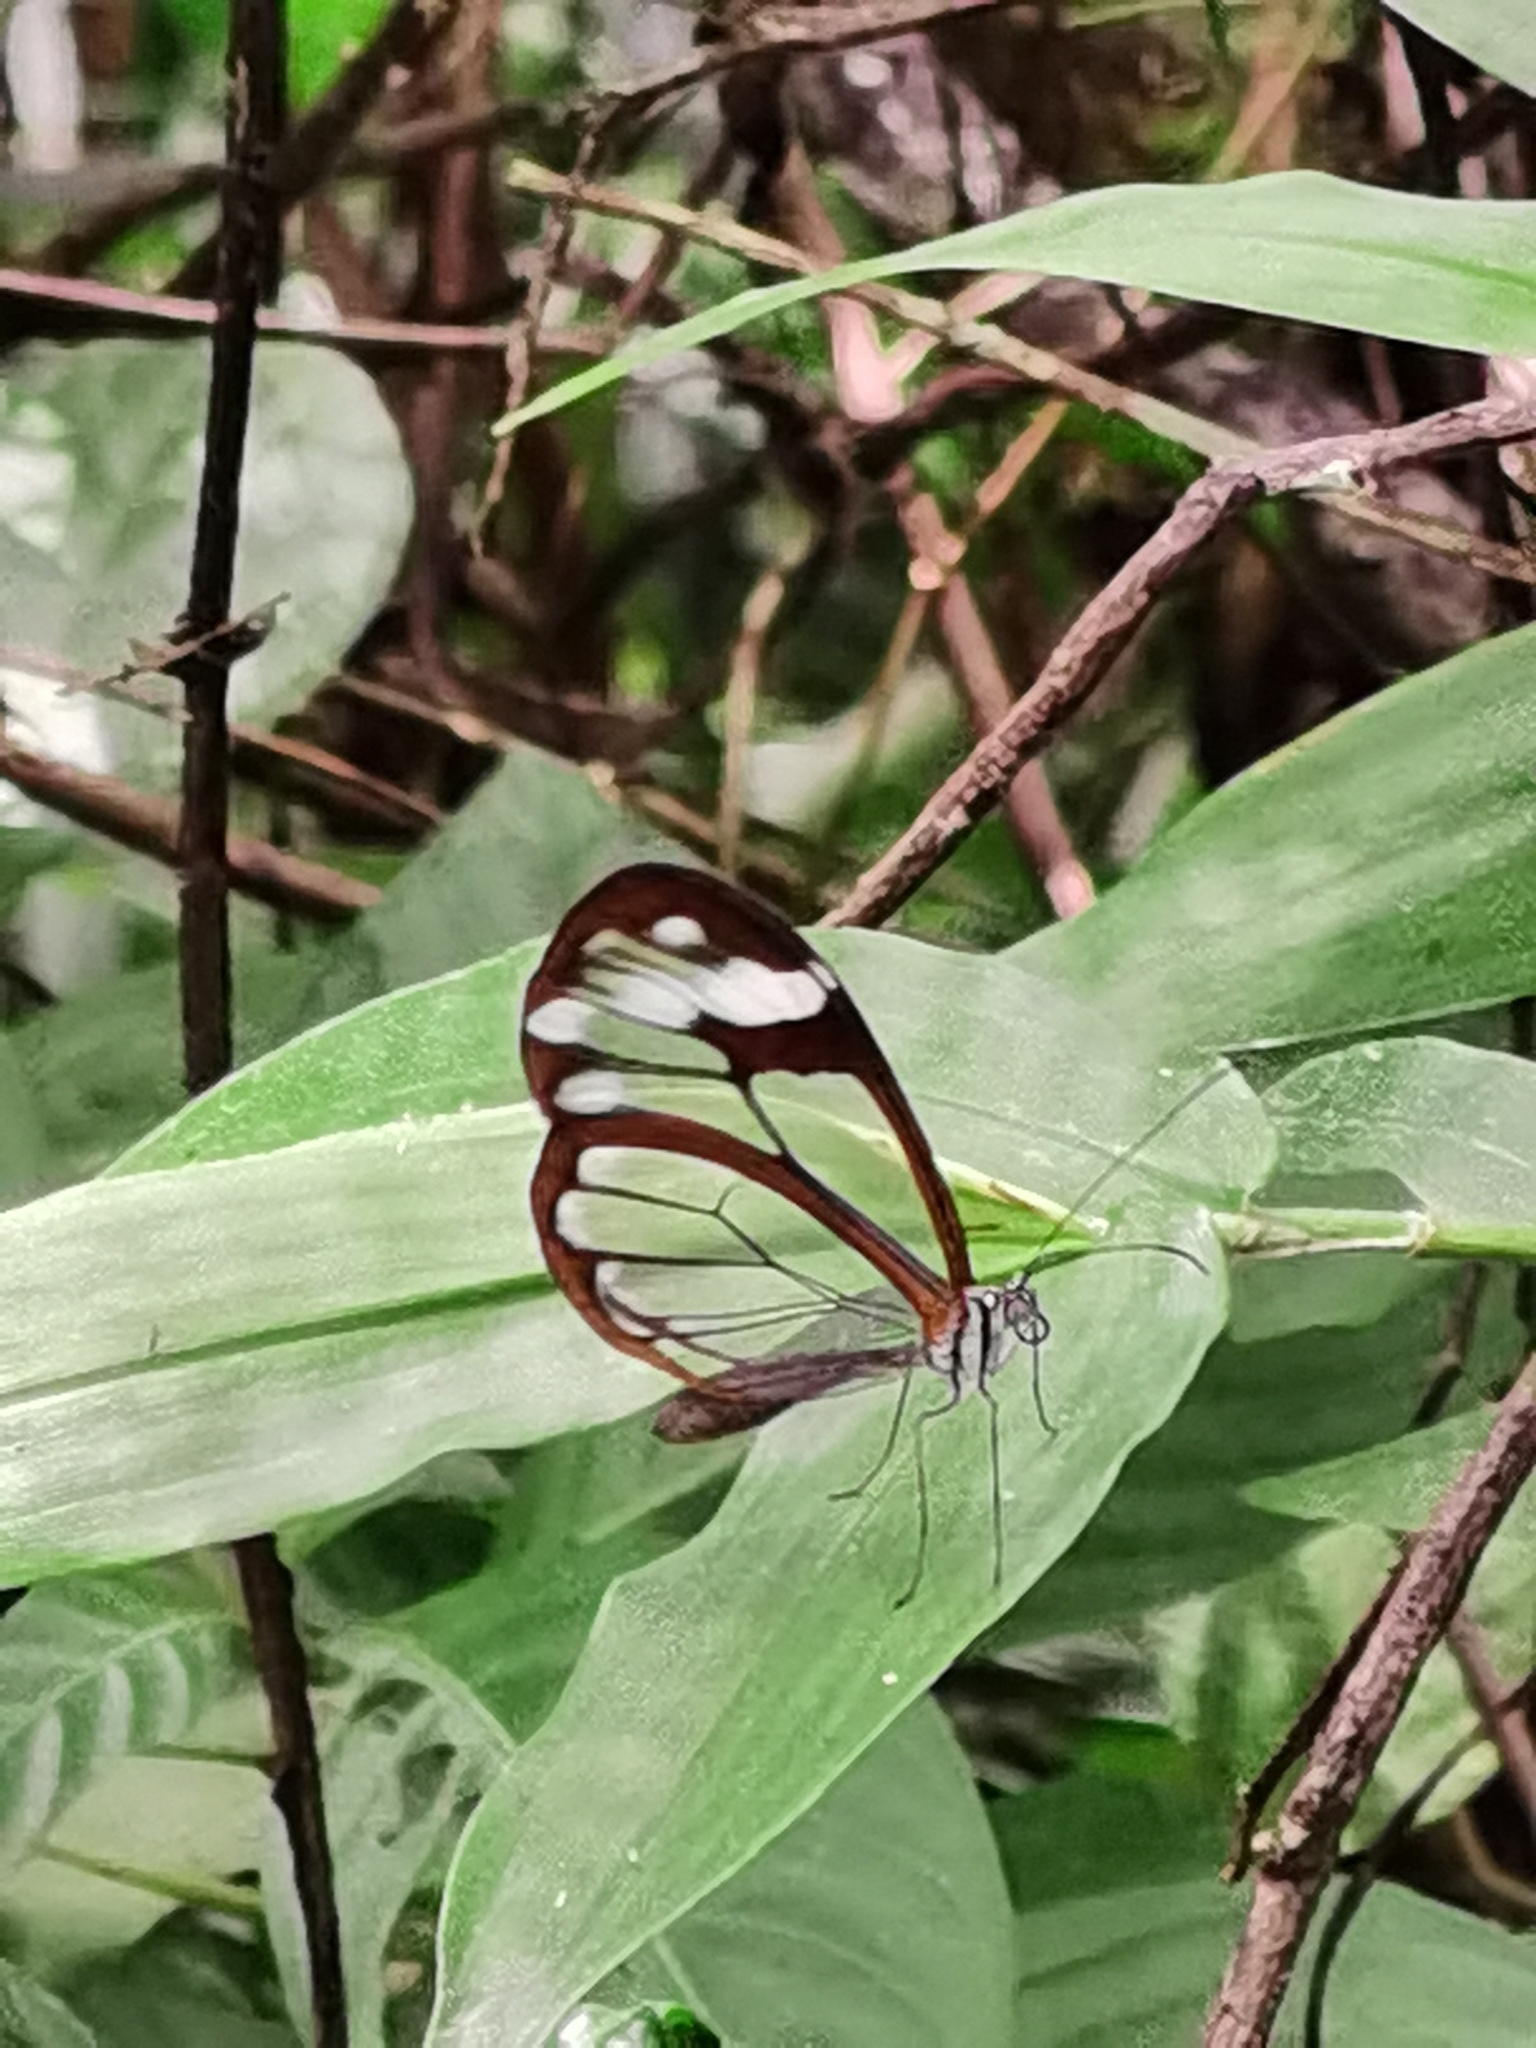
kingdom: Animalia
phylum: Arthropoda
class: Insecta
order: Lepidoptera
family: Nymphalidae
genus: Greta
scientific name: Greta andromica
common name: Andromica clearwing
